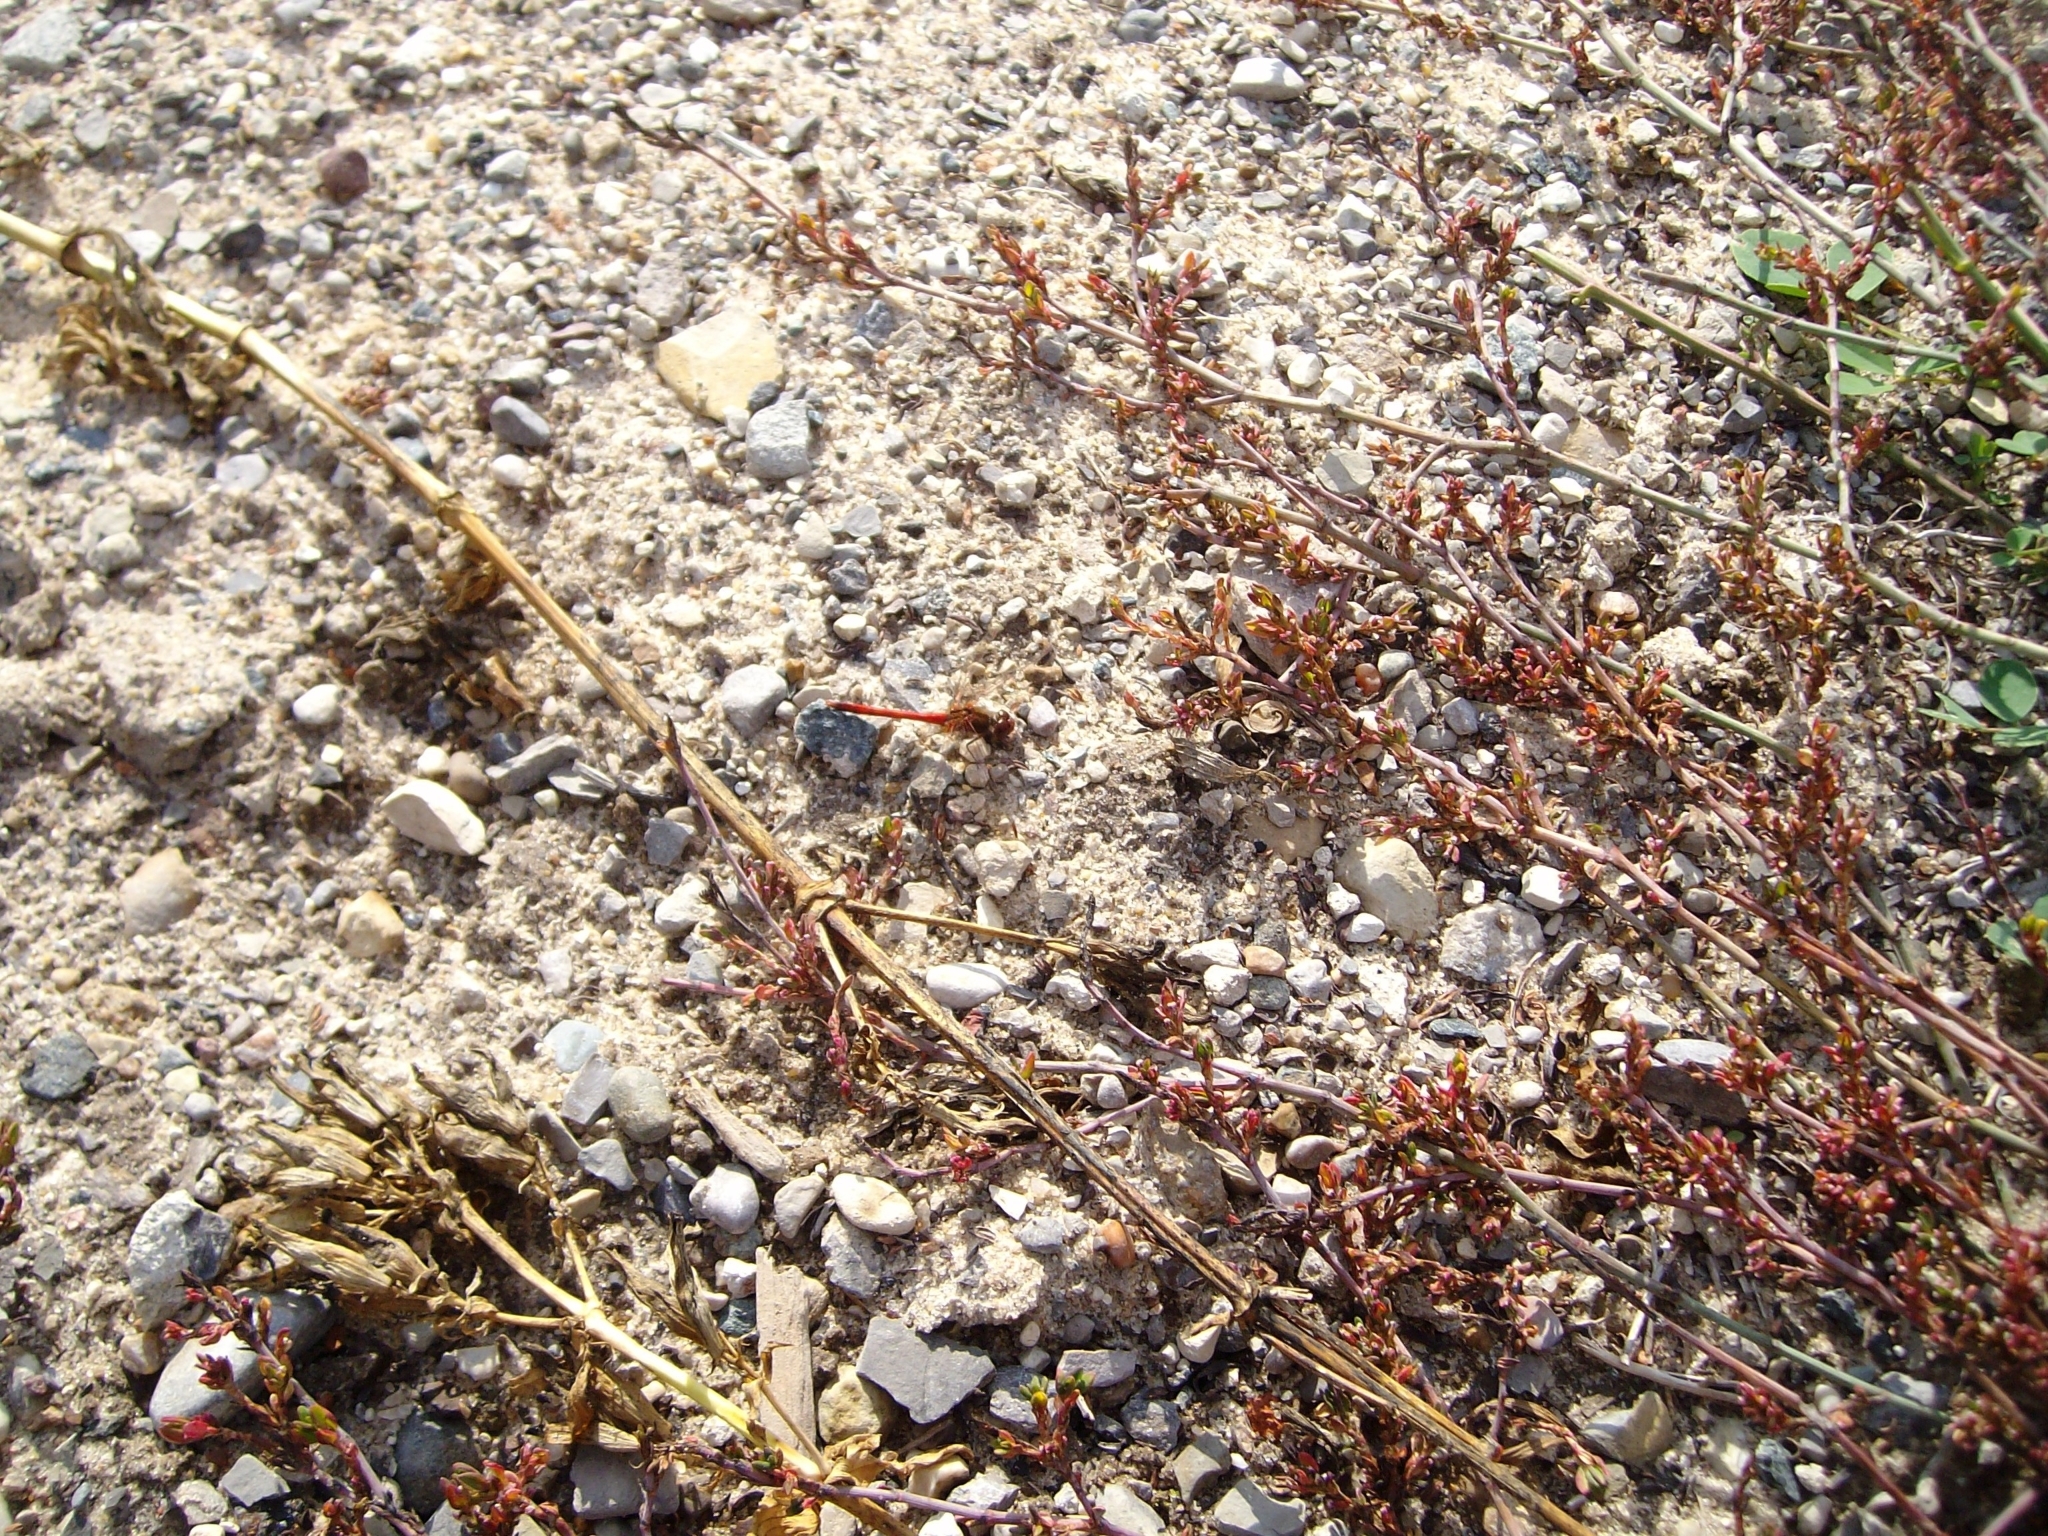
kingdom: Animalia
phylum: Arthropoda
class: Insecta
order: Odonata
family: Libellulidae
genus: Sympetrum
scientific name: Sympetrum vicinum
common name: Autumn meadowhawk
